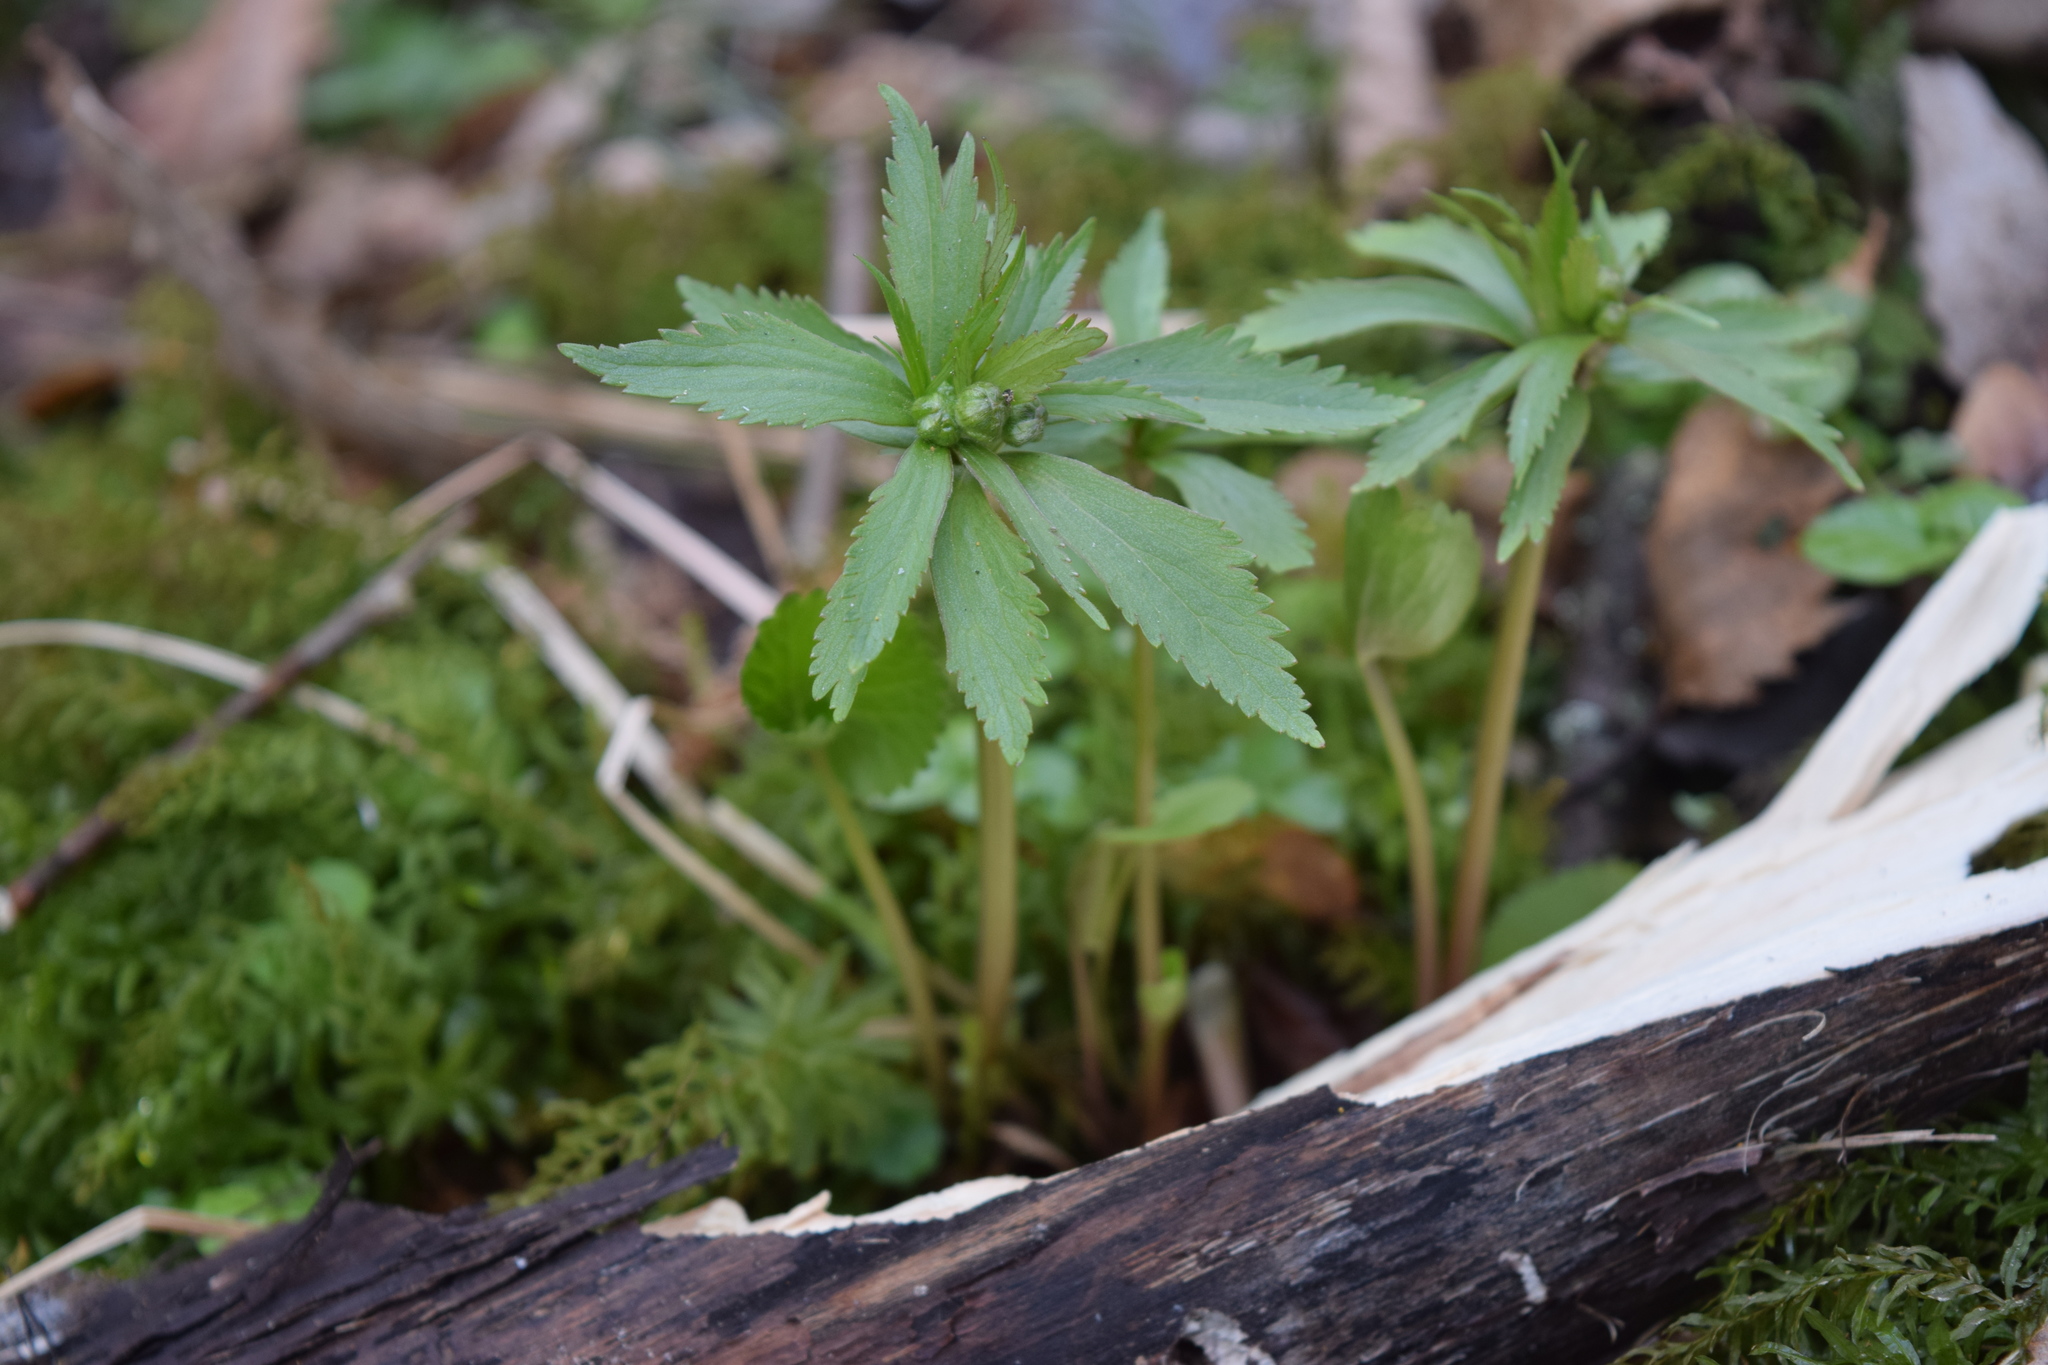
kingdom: Plantae
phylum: Tracheophyta
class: Magnoliopsida
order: Ranunculales
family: Ranunculaceae
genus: Ranunculus
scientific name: Ranunculus cassubicus
